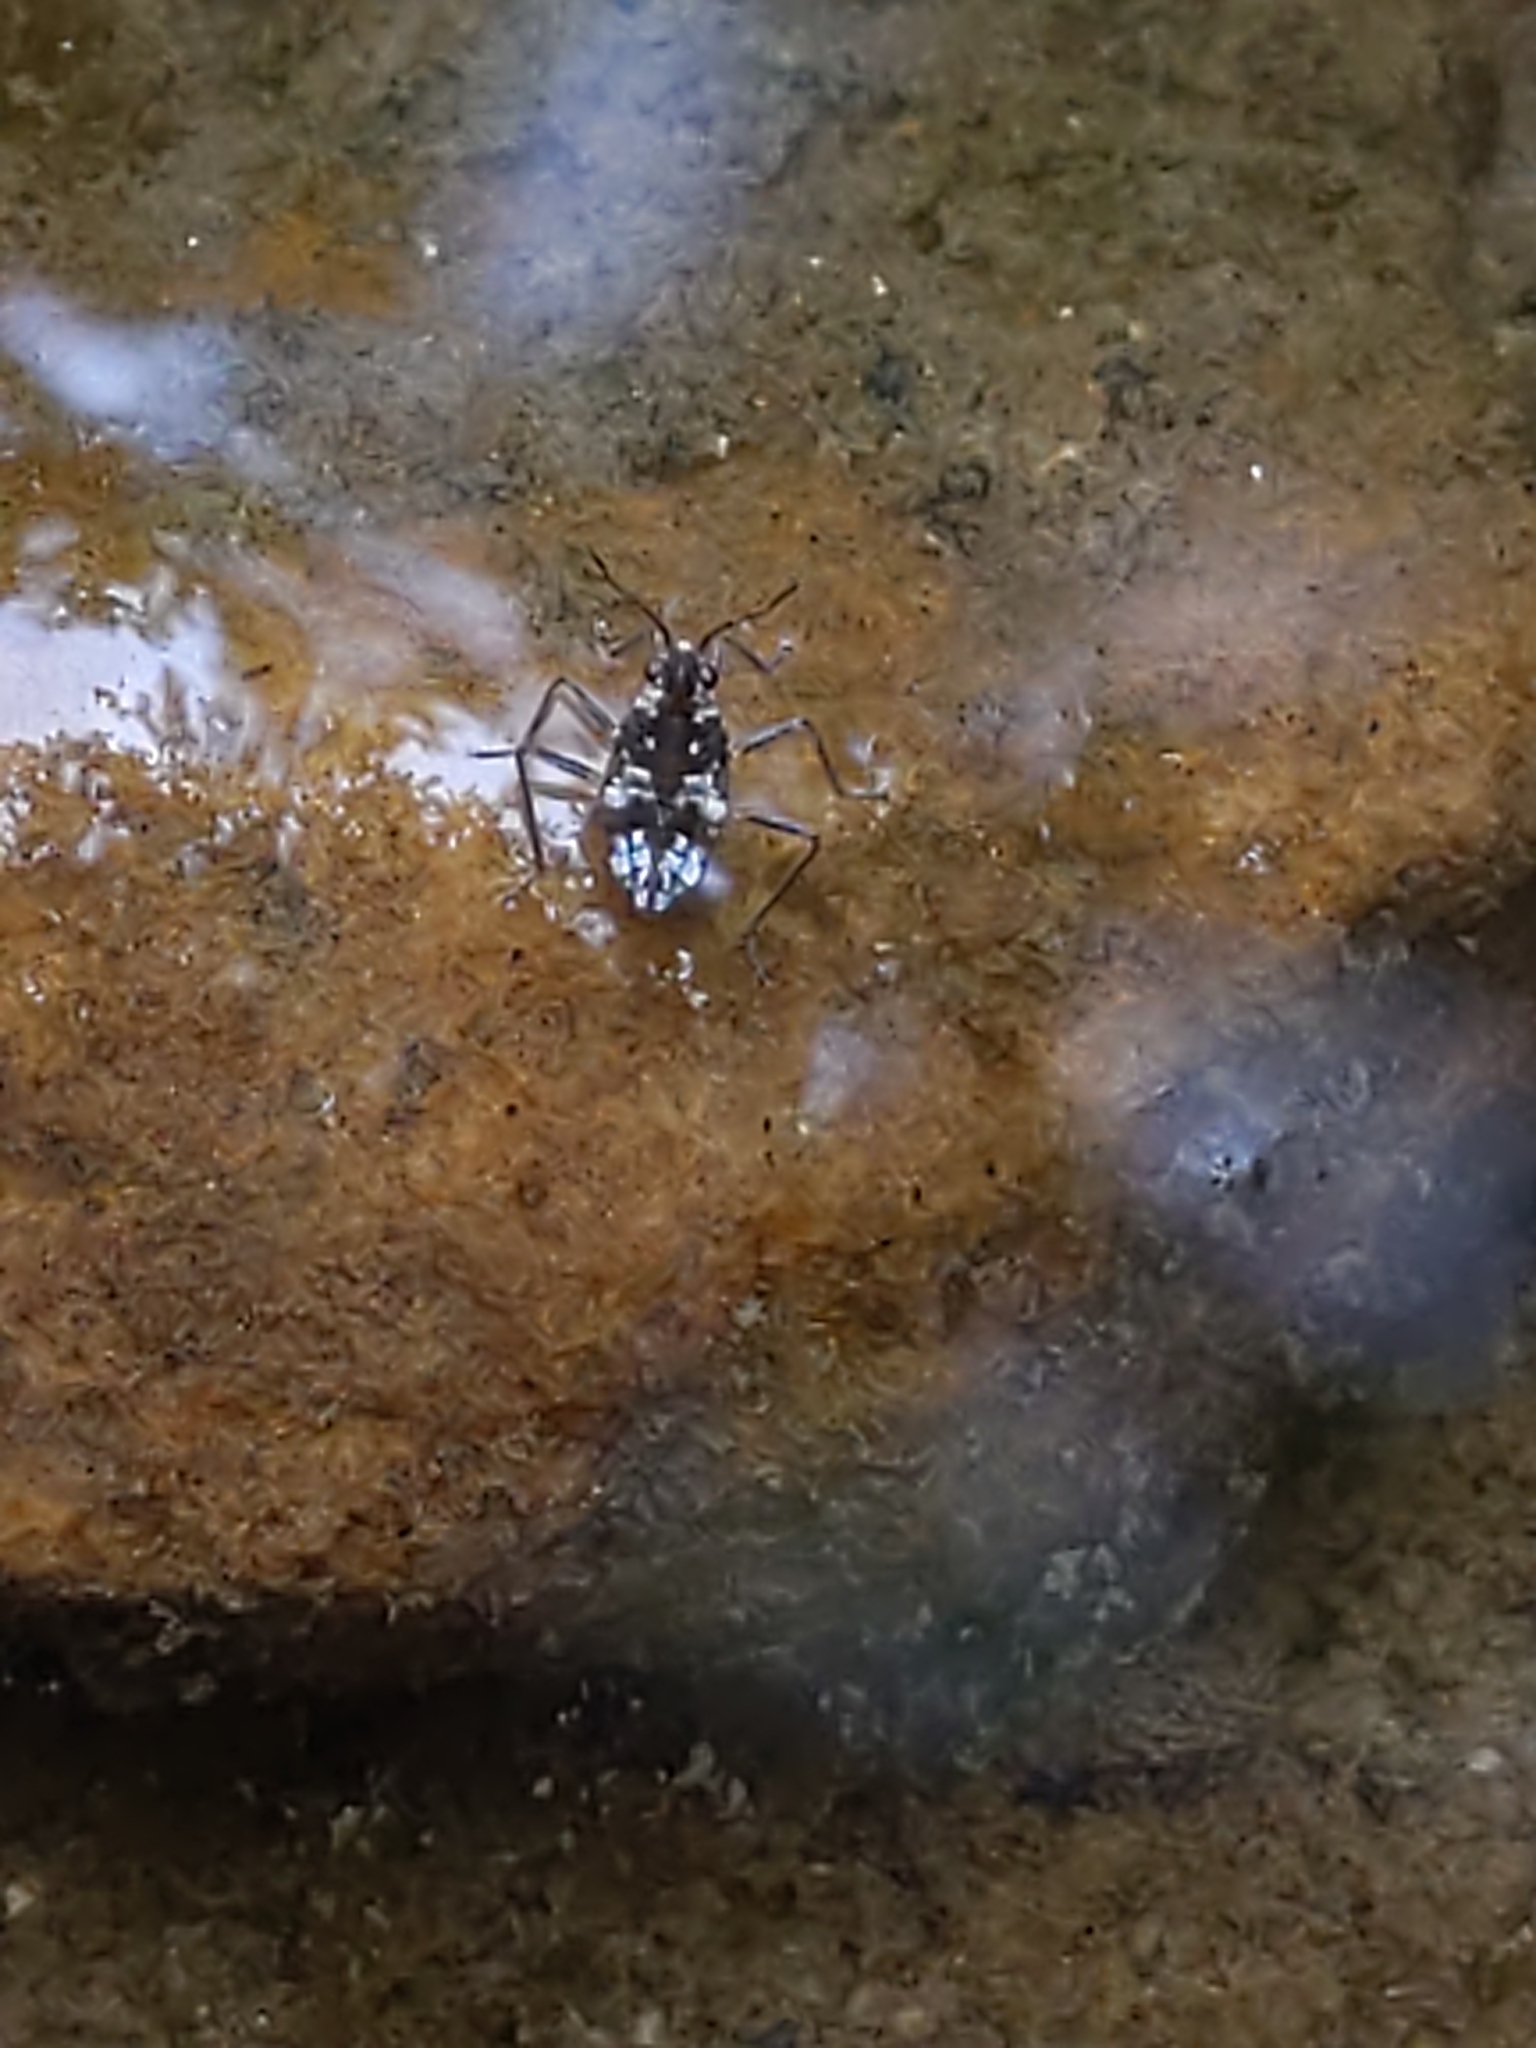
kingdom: Animalia
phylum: Arthropoda
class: Insecta
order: Hemiptera
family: Veliidae
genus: Microvelia
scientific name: Microvelia americana
